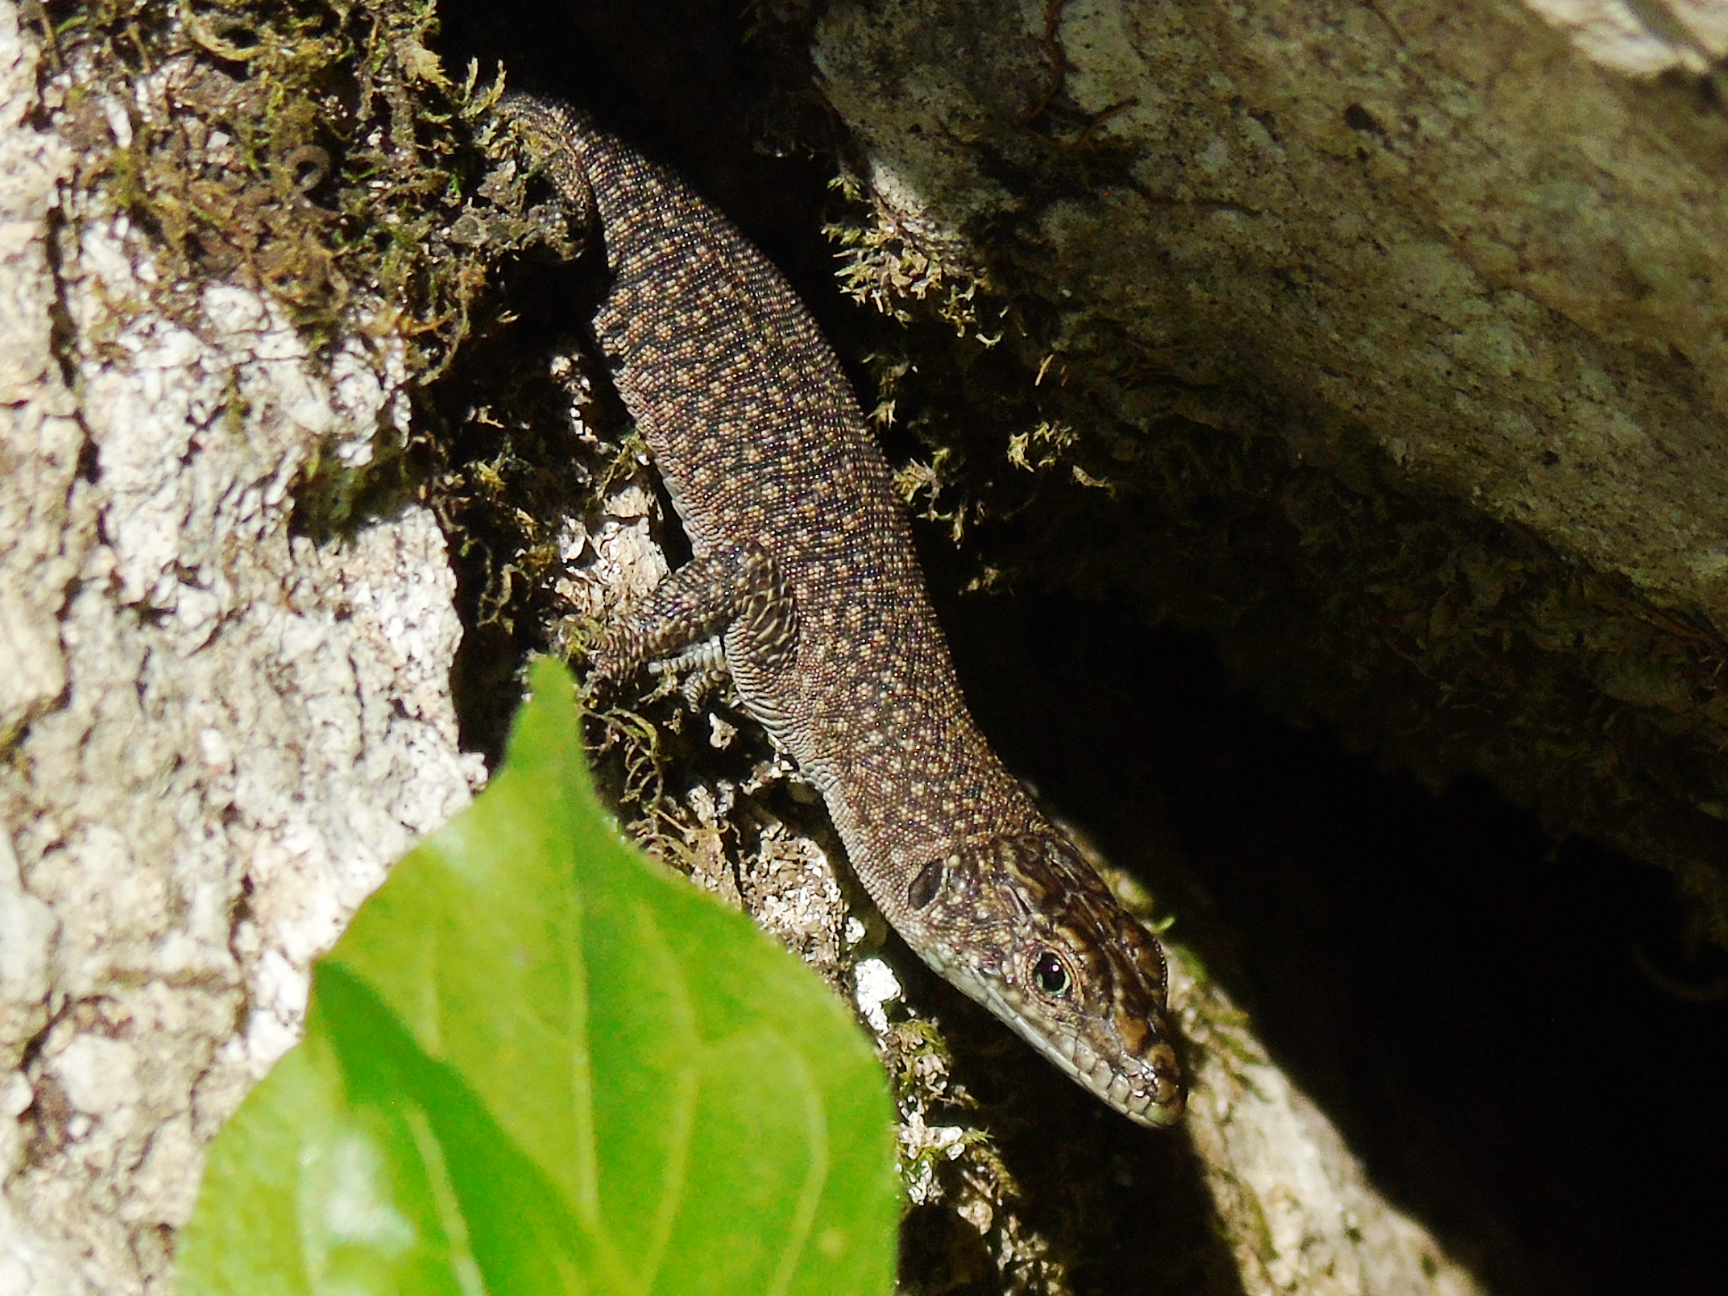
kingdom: Animalia
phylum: Chordata
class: Squamata
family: Lacertidae
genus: Dalmatolacerta
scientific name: Dalmatolacerta oxycephala
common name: Sharp-snouted rock lizard
